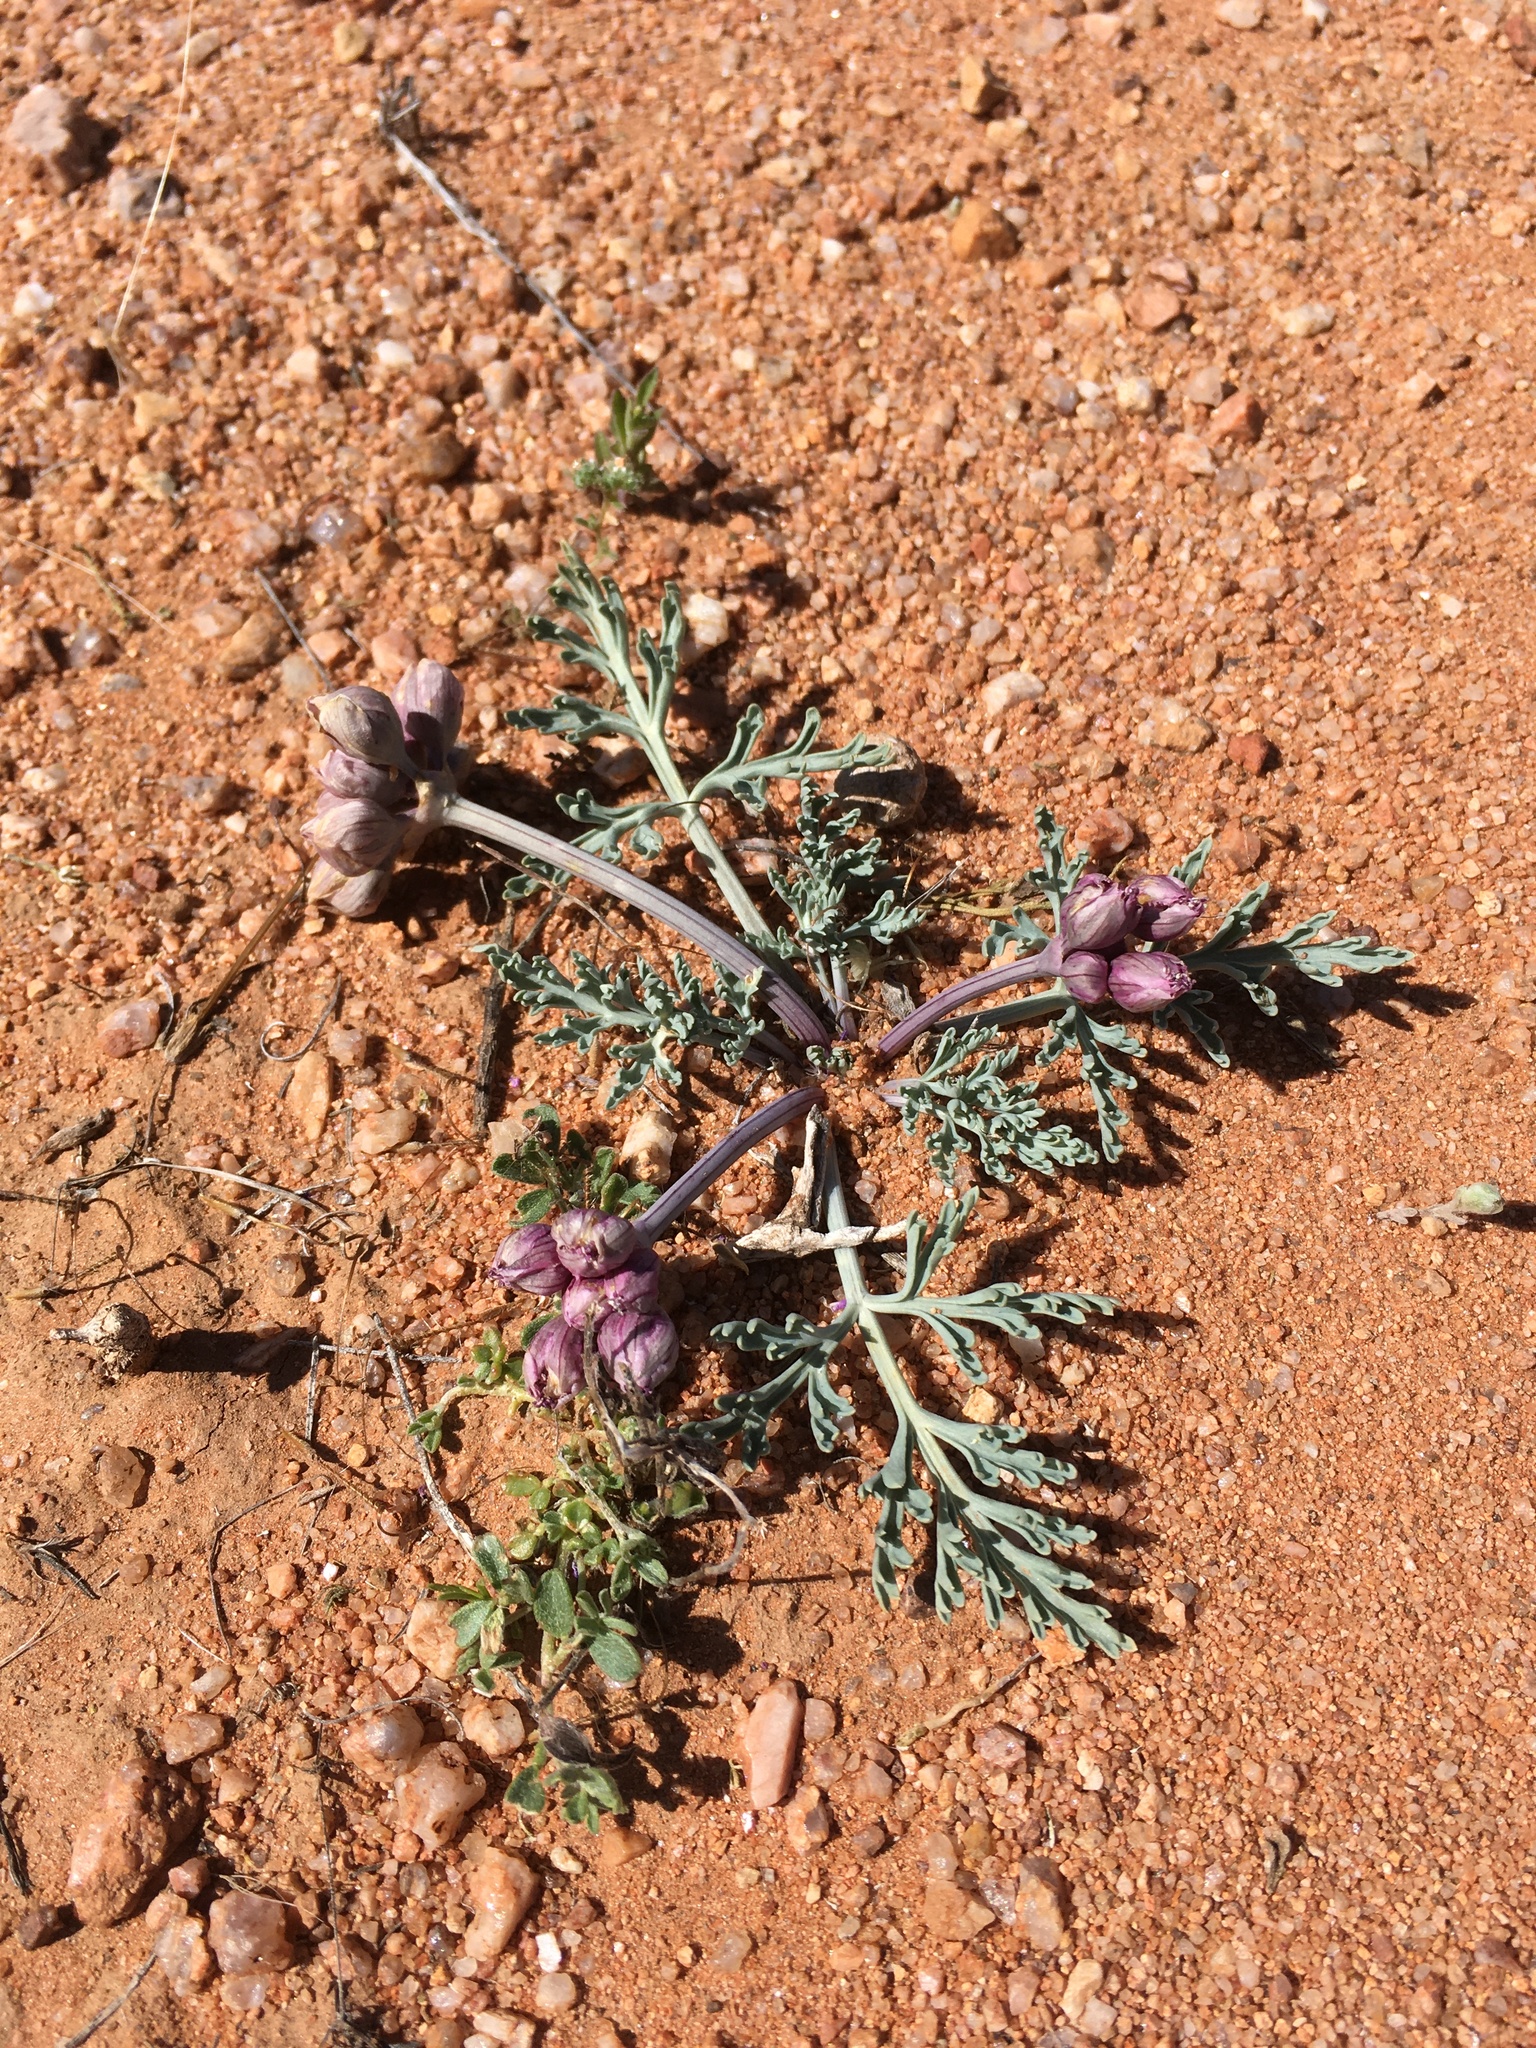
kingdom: Plantae
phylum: Tracheophyta
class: Magnoliopsida
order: Apiales
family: Apiaceae
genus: Vesper
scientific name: Vesper multinervatus
